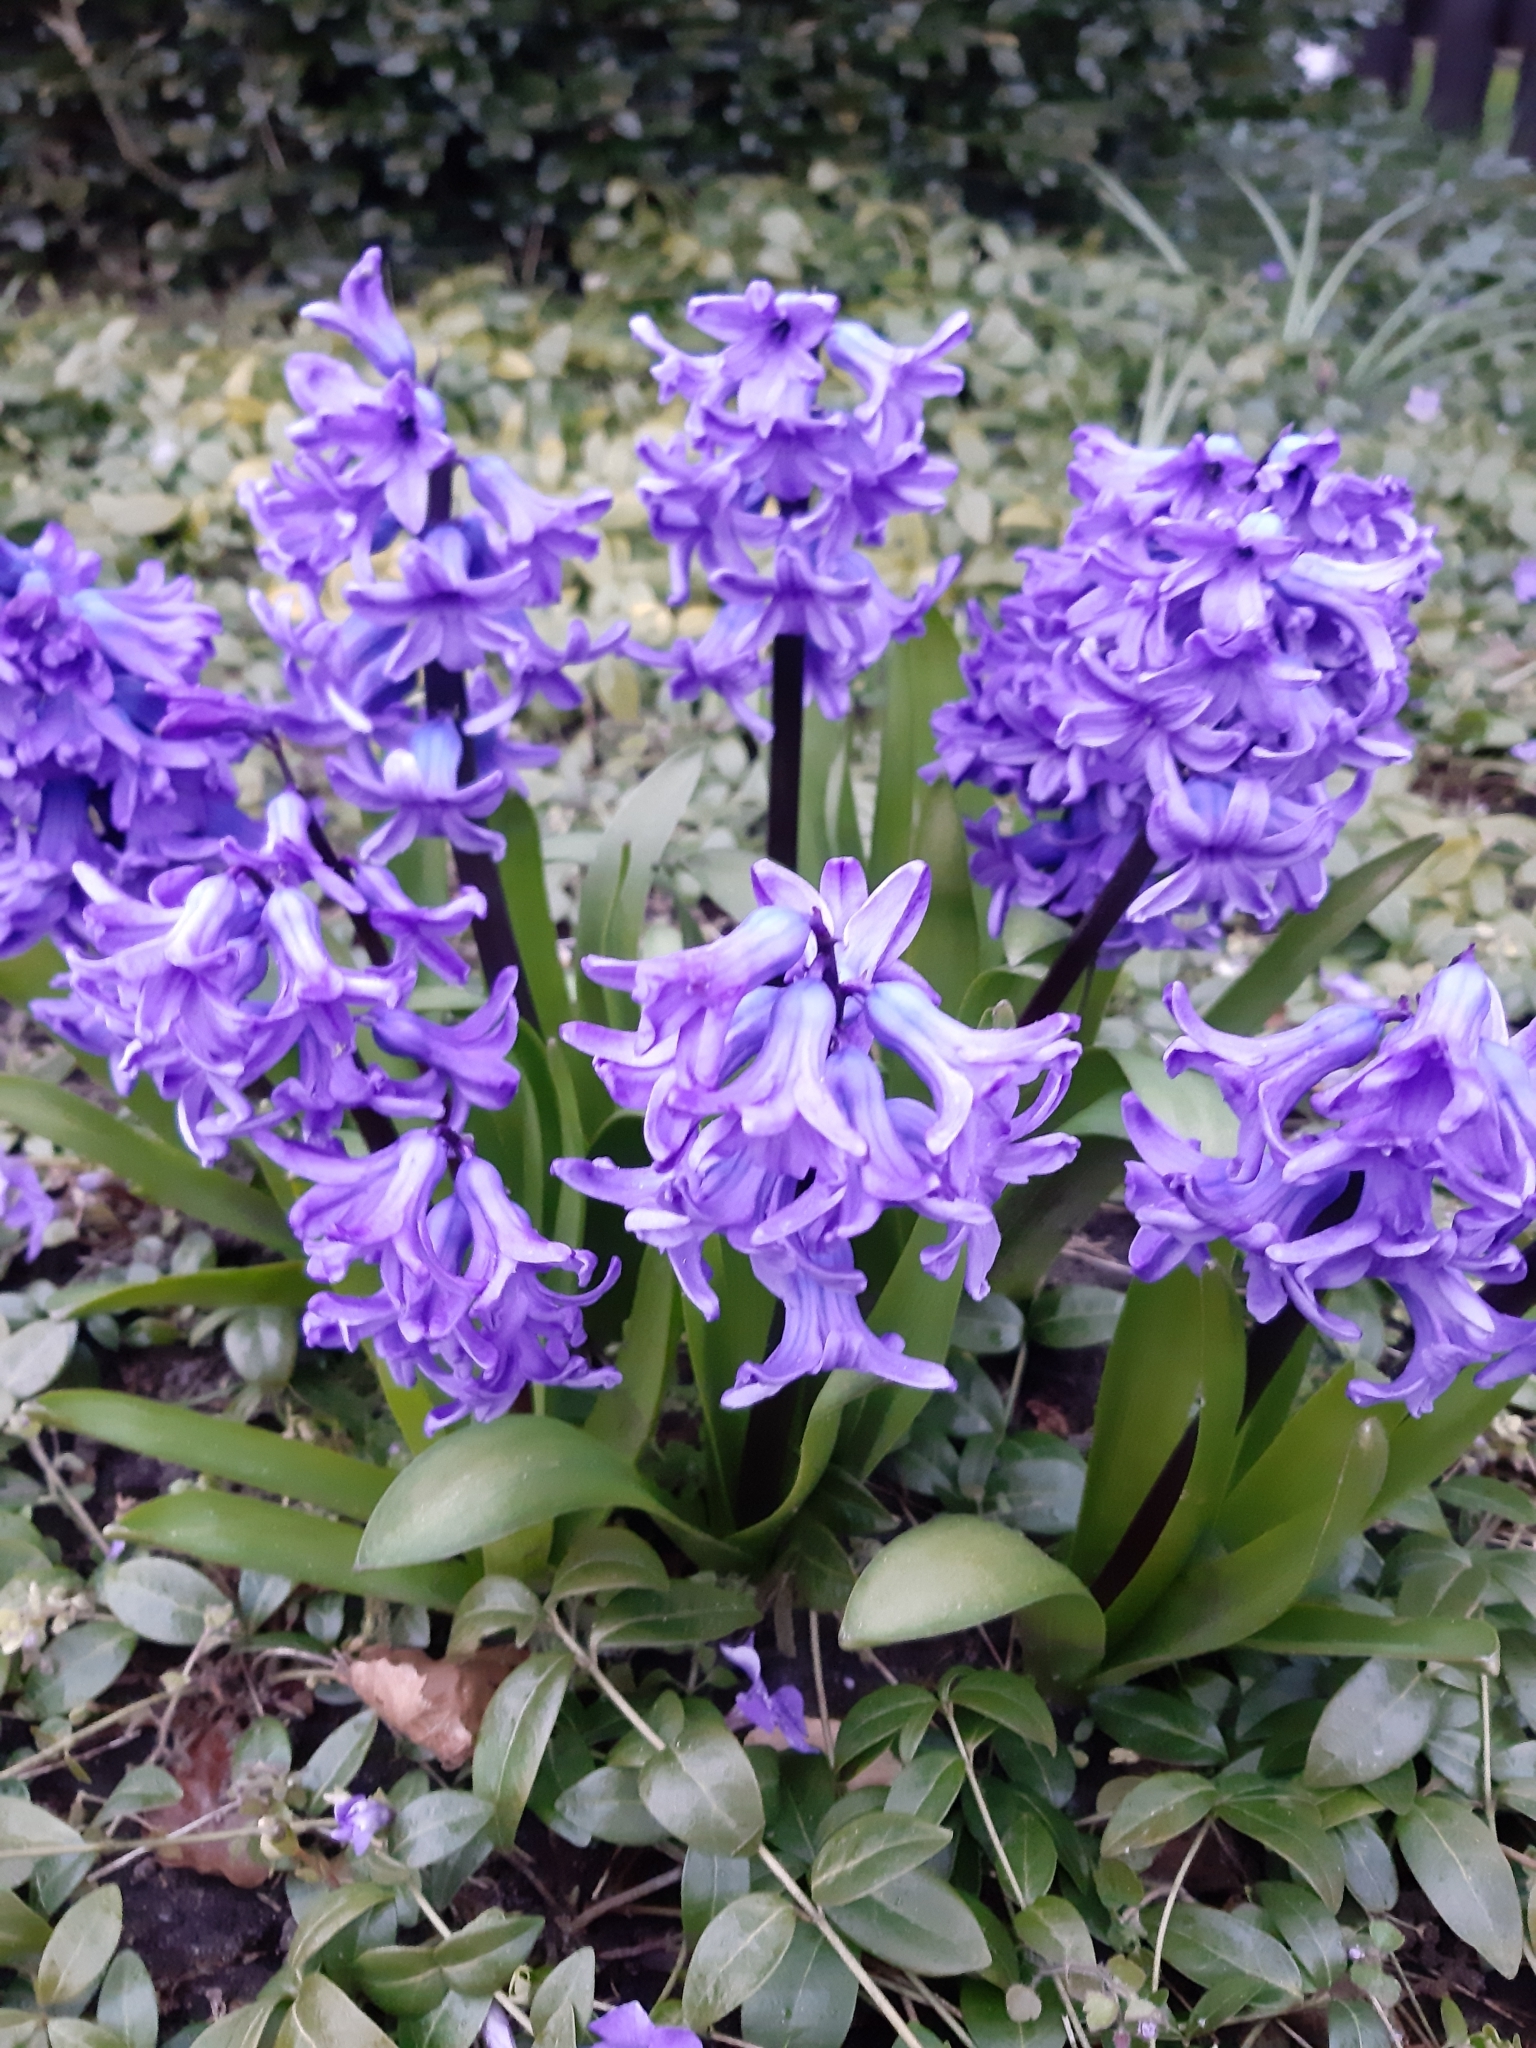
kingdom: Plantae
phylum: Tracheophyta
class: Liliopsida
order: Asparagales
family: Asparagaceae
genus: Hyacinthus
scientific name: Hyacinthus orientalis
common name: Hyacinth
